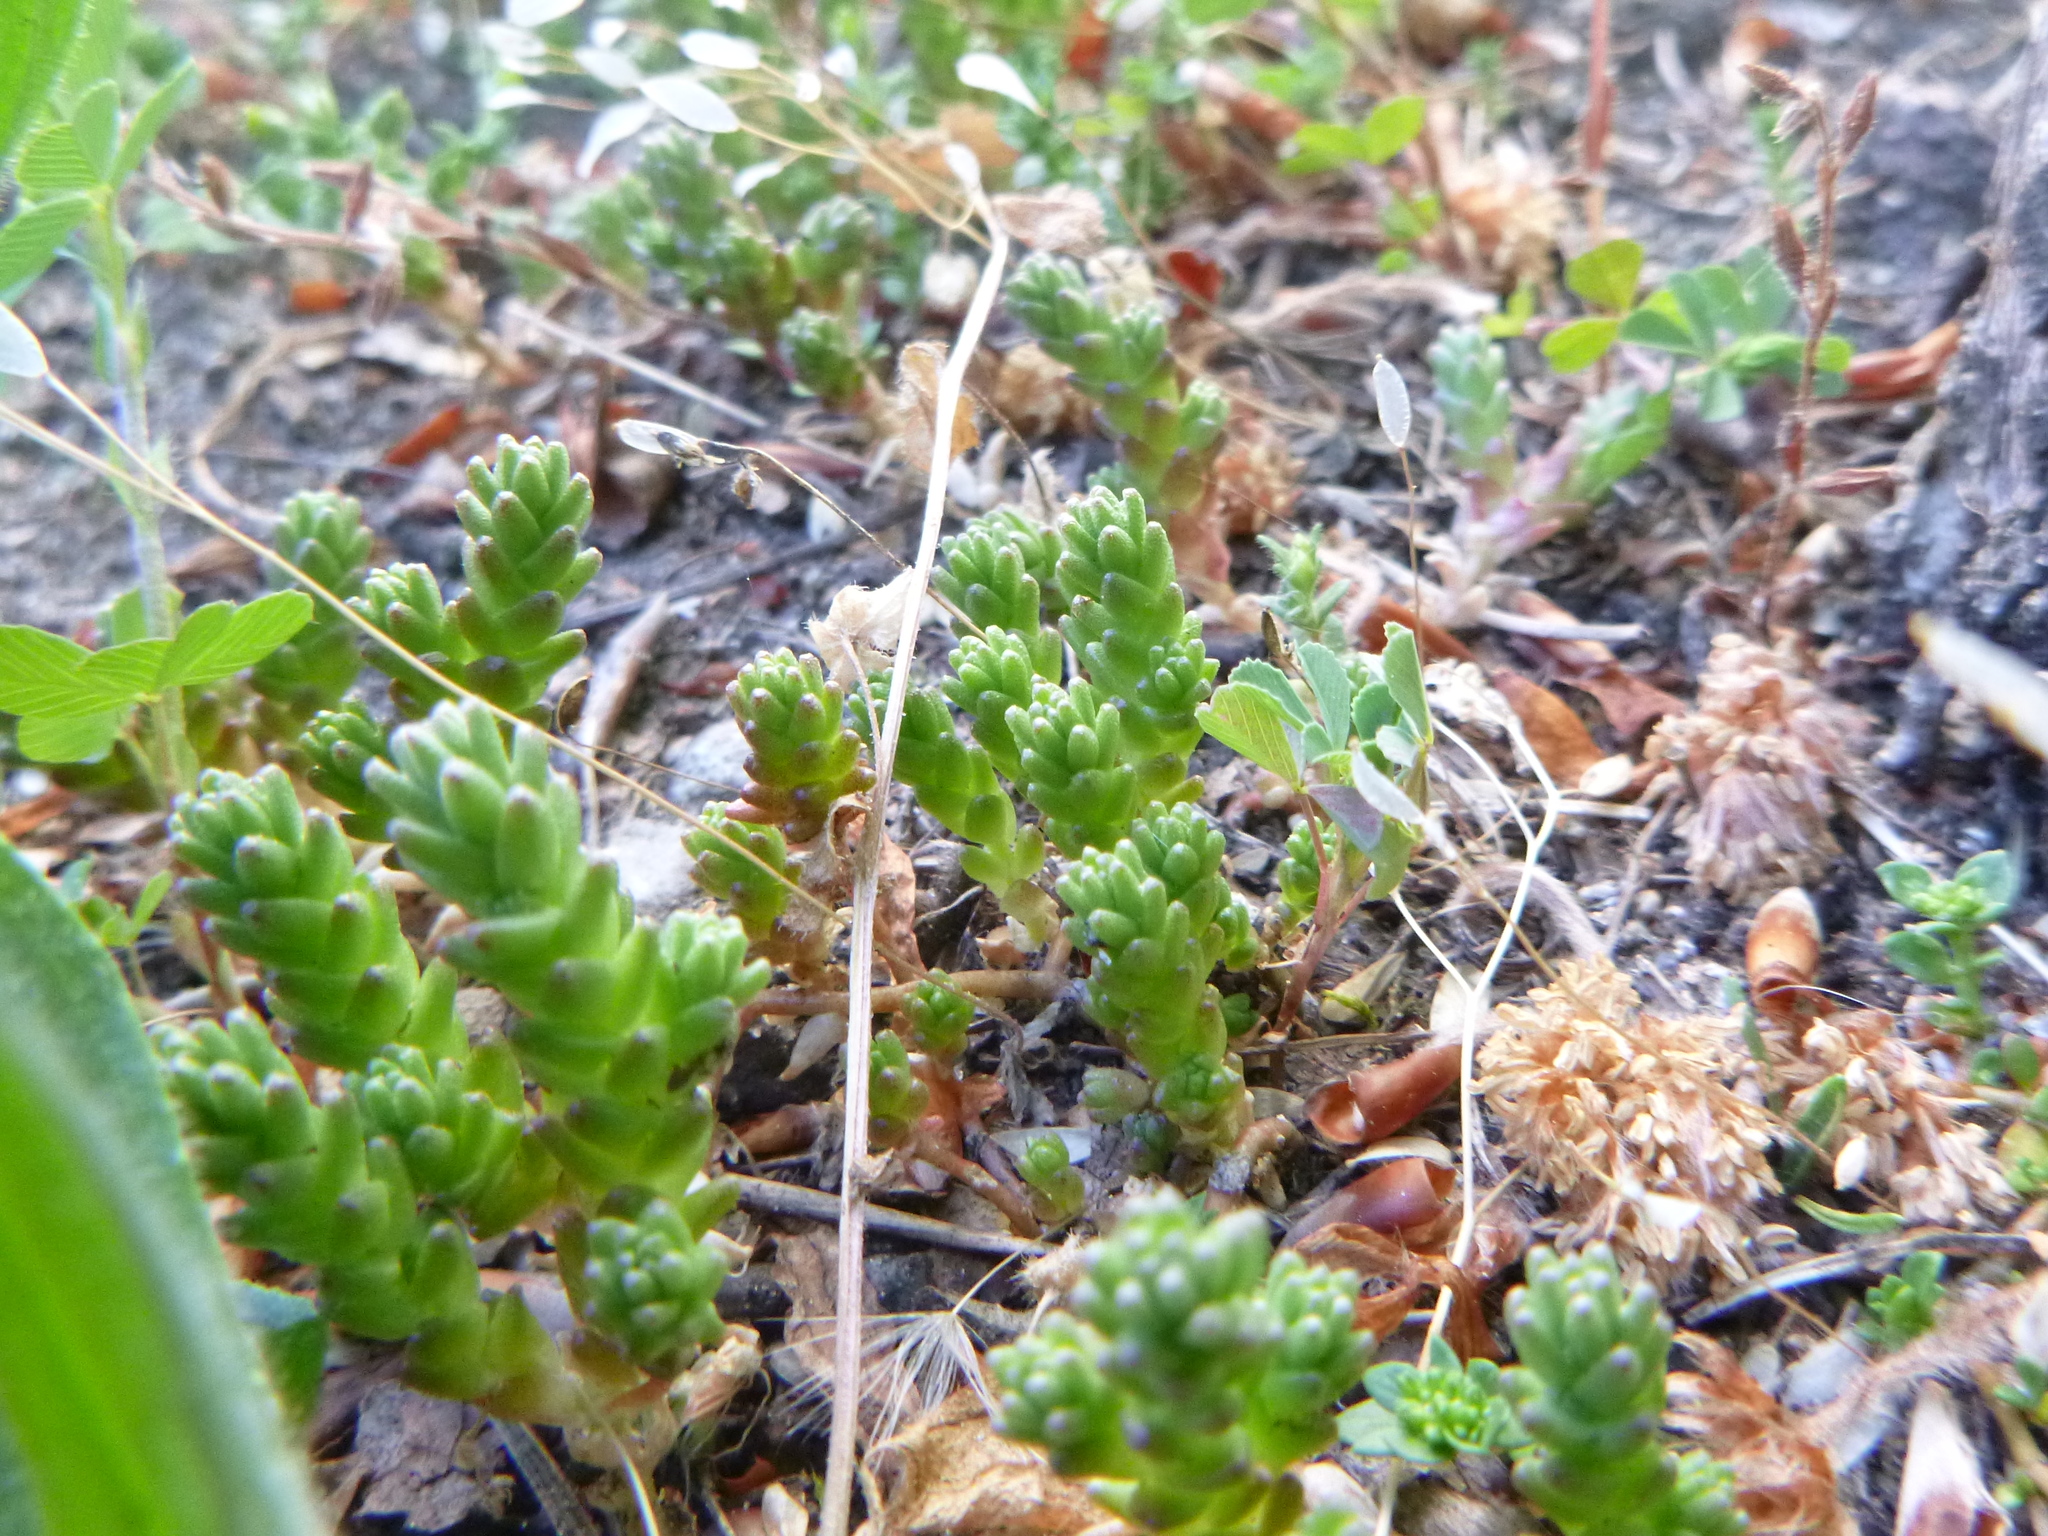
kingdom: Plantae
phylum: Tracheophyta
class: Magnoliopsida
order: Saxifragales
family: Crassulaceae
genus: Sedum
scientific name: Sedum acre
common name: Biting stonecrop
